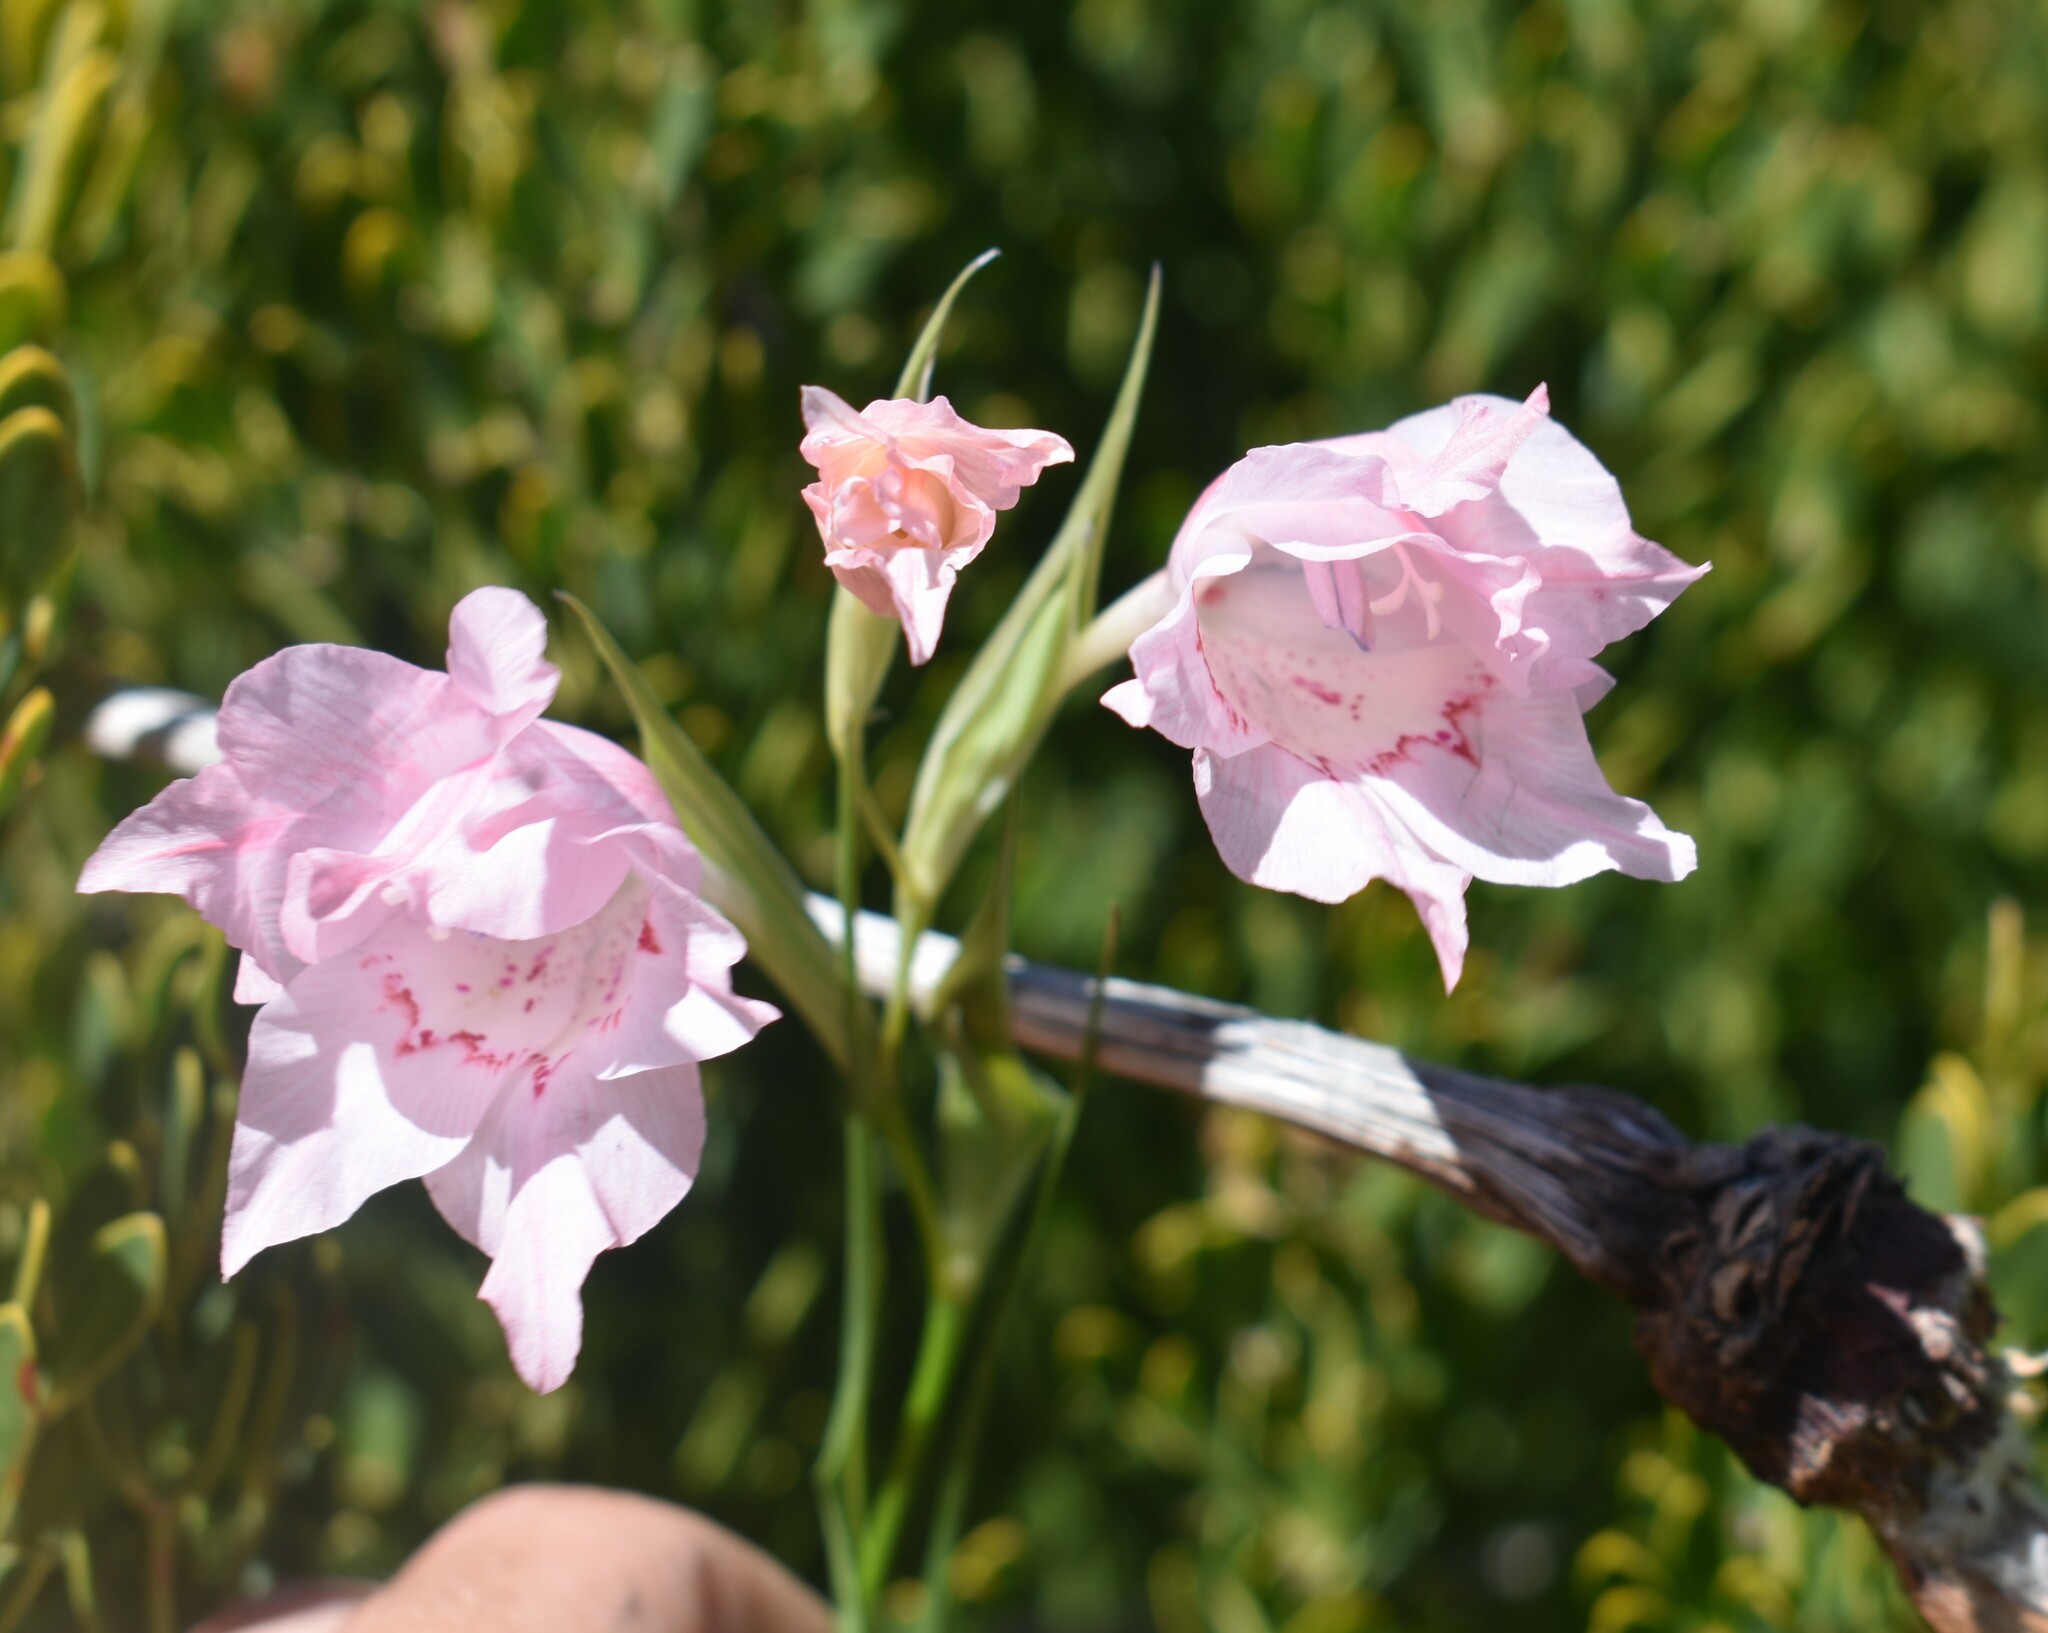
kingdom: Plantae
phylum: Tracheophyta
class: Liliopsida
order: Asparagales
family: Iridaceae
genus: Gladiolus
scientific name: Gladiolus virgatus
